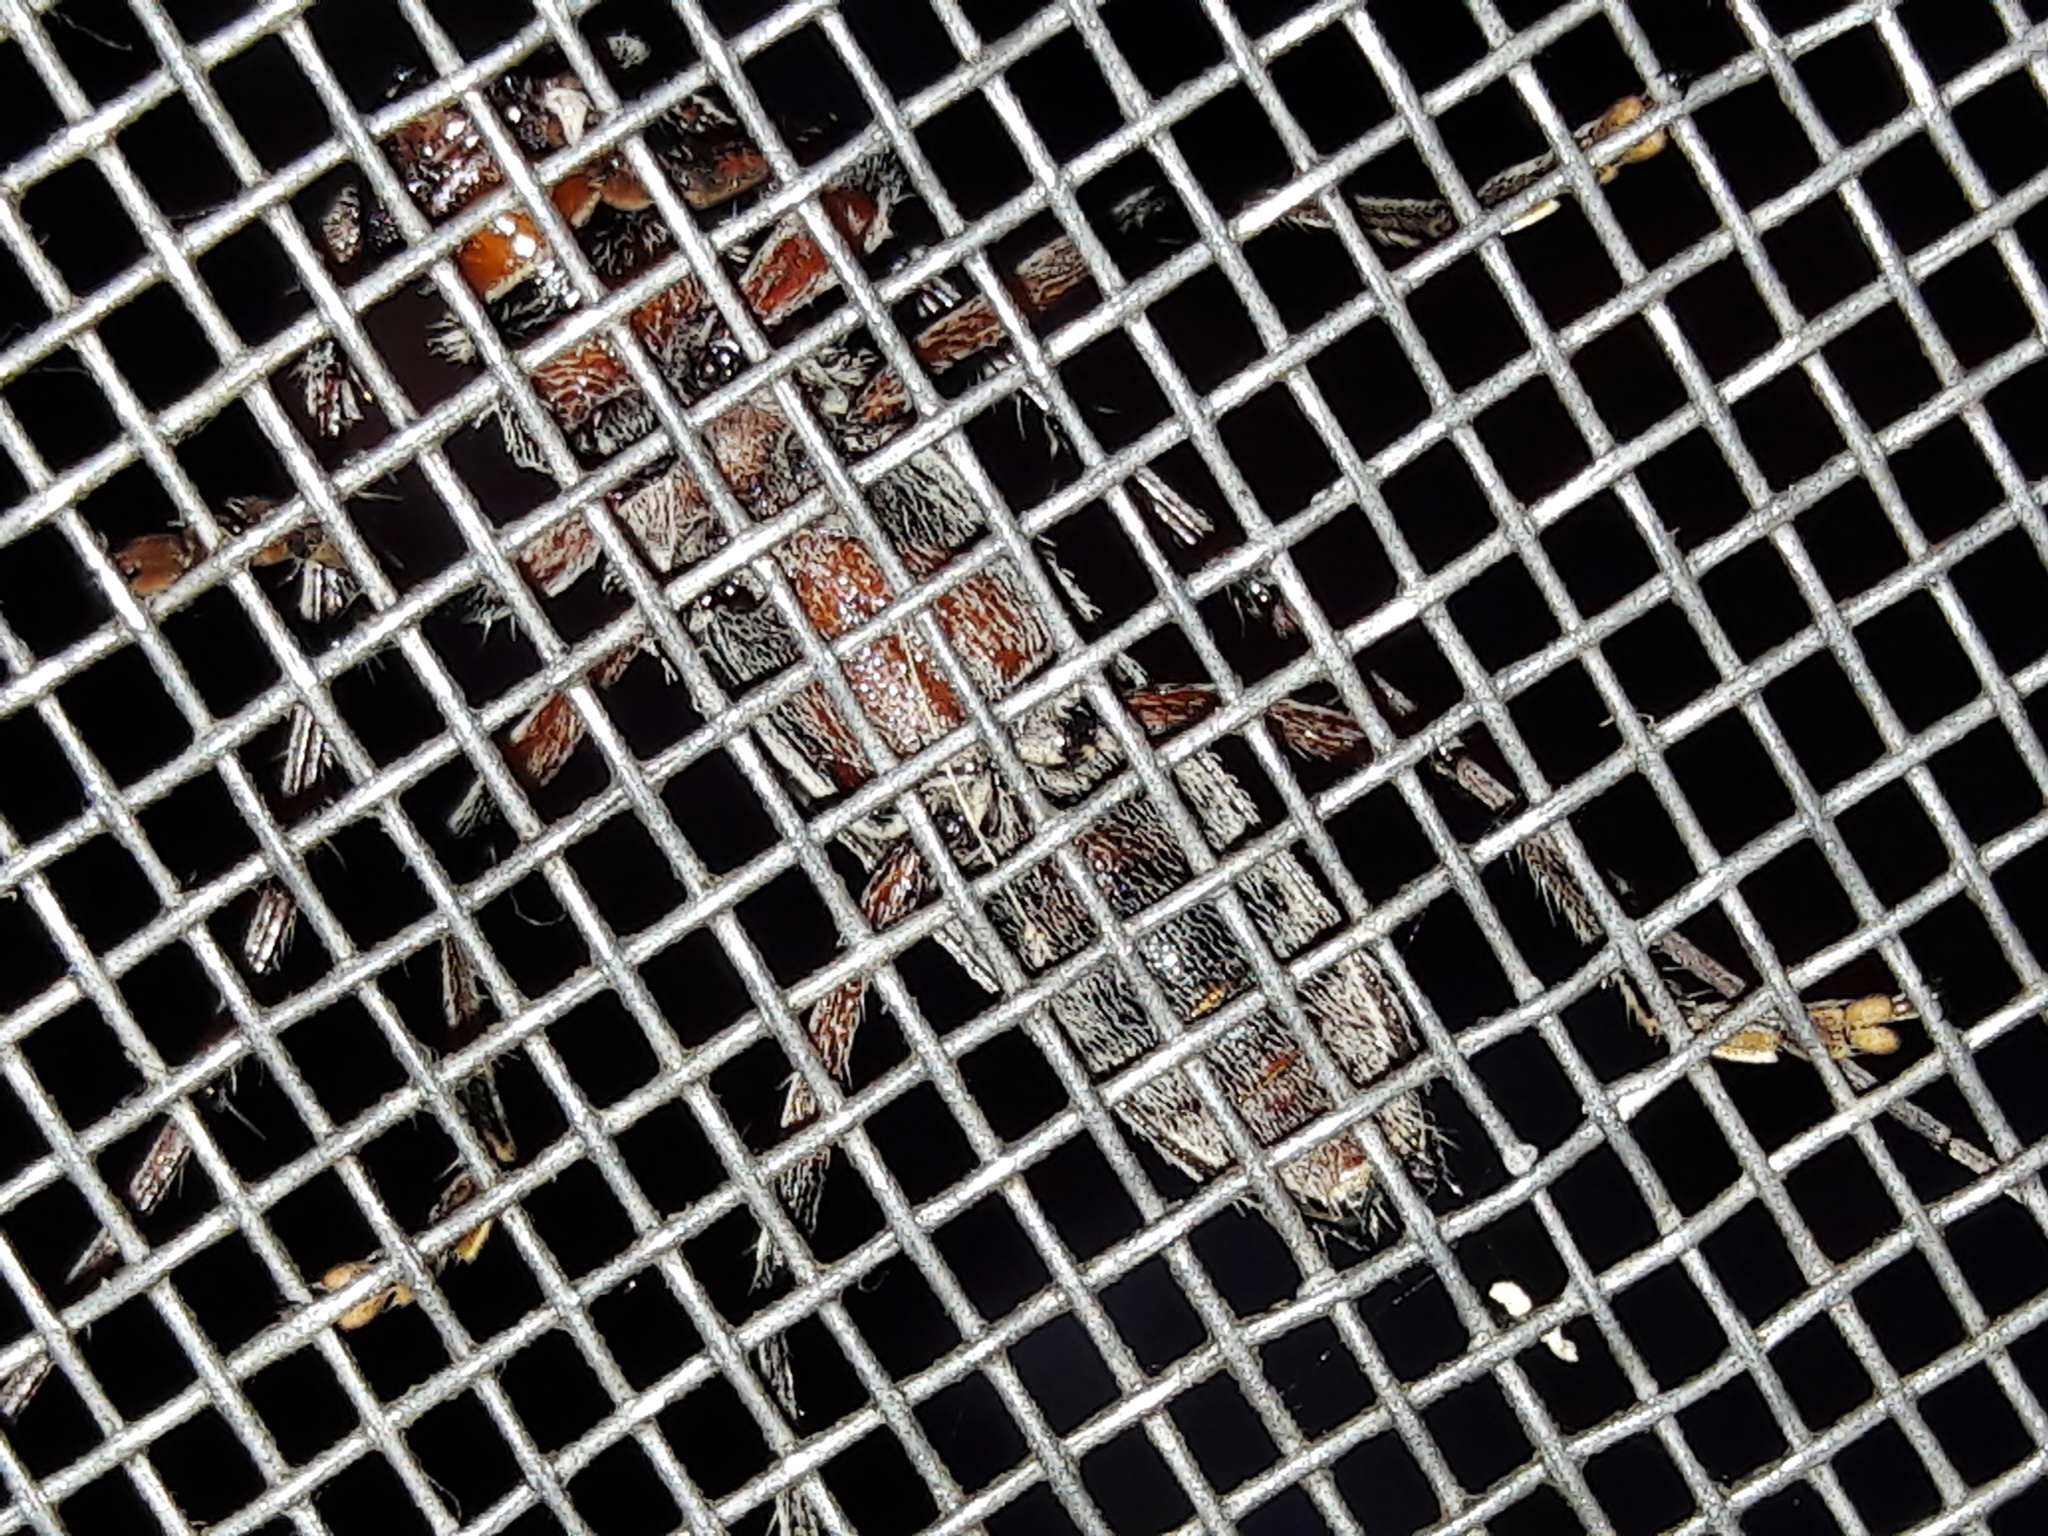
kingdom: Animalia
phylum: Arthropoda
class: Insecta
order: Coleoptera
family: Cerambycidae
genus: Eburodacrys
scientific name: Eburodacrys crassimana
